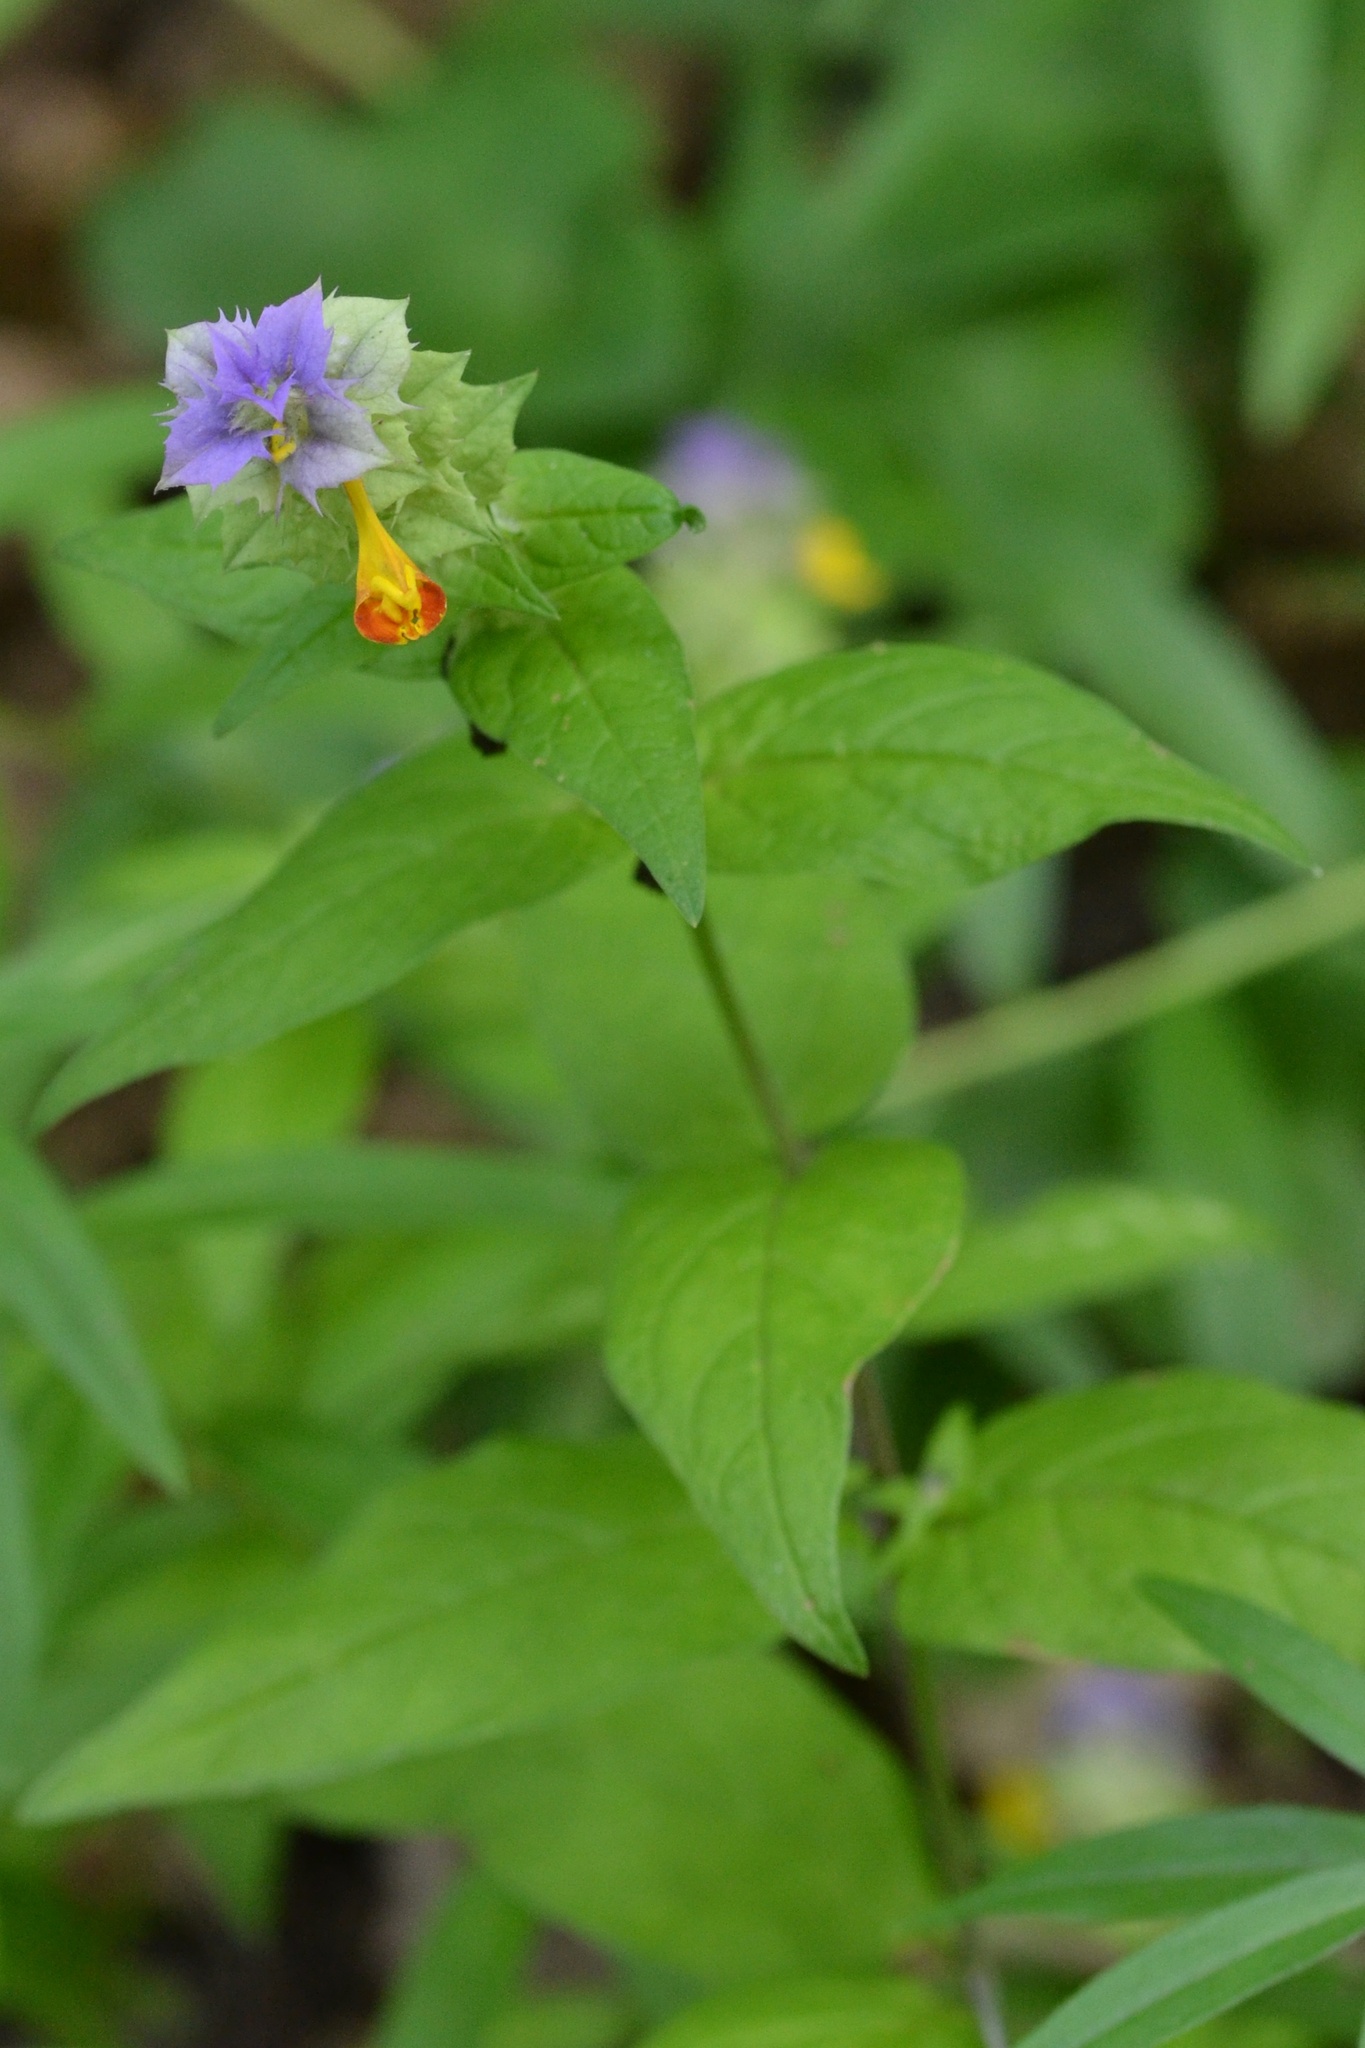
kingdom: Plantae
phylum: Tracheophyta
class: Magnoliopsida
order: Lamiales
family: Orobanchaceae
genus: Melampyrum
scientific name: Melampyrum nemorosum
